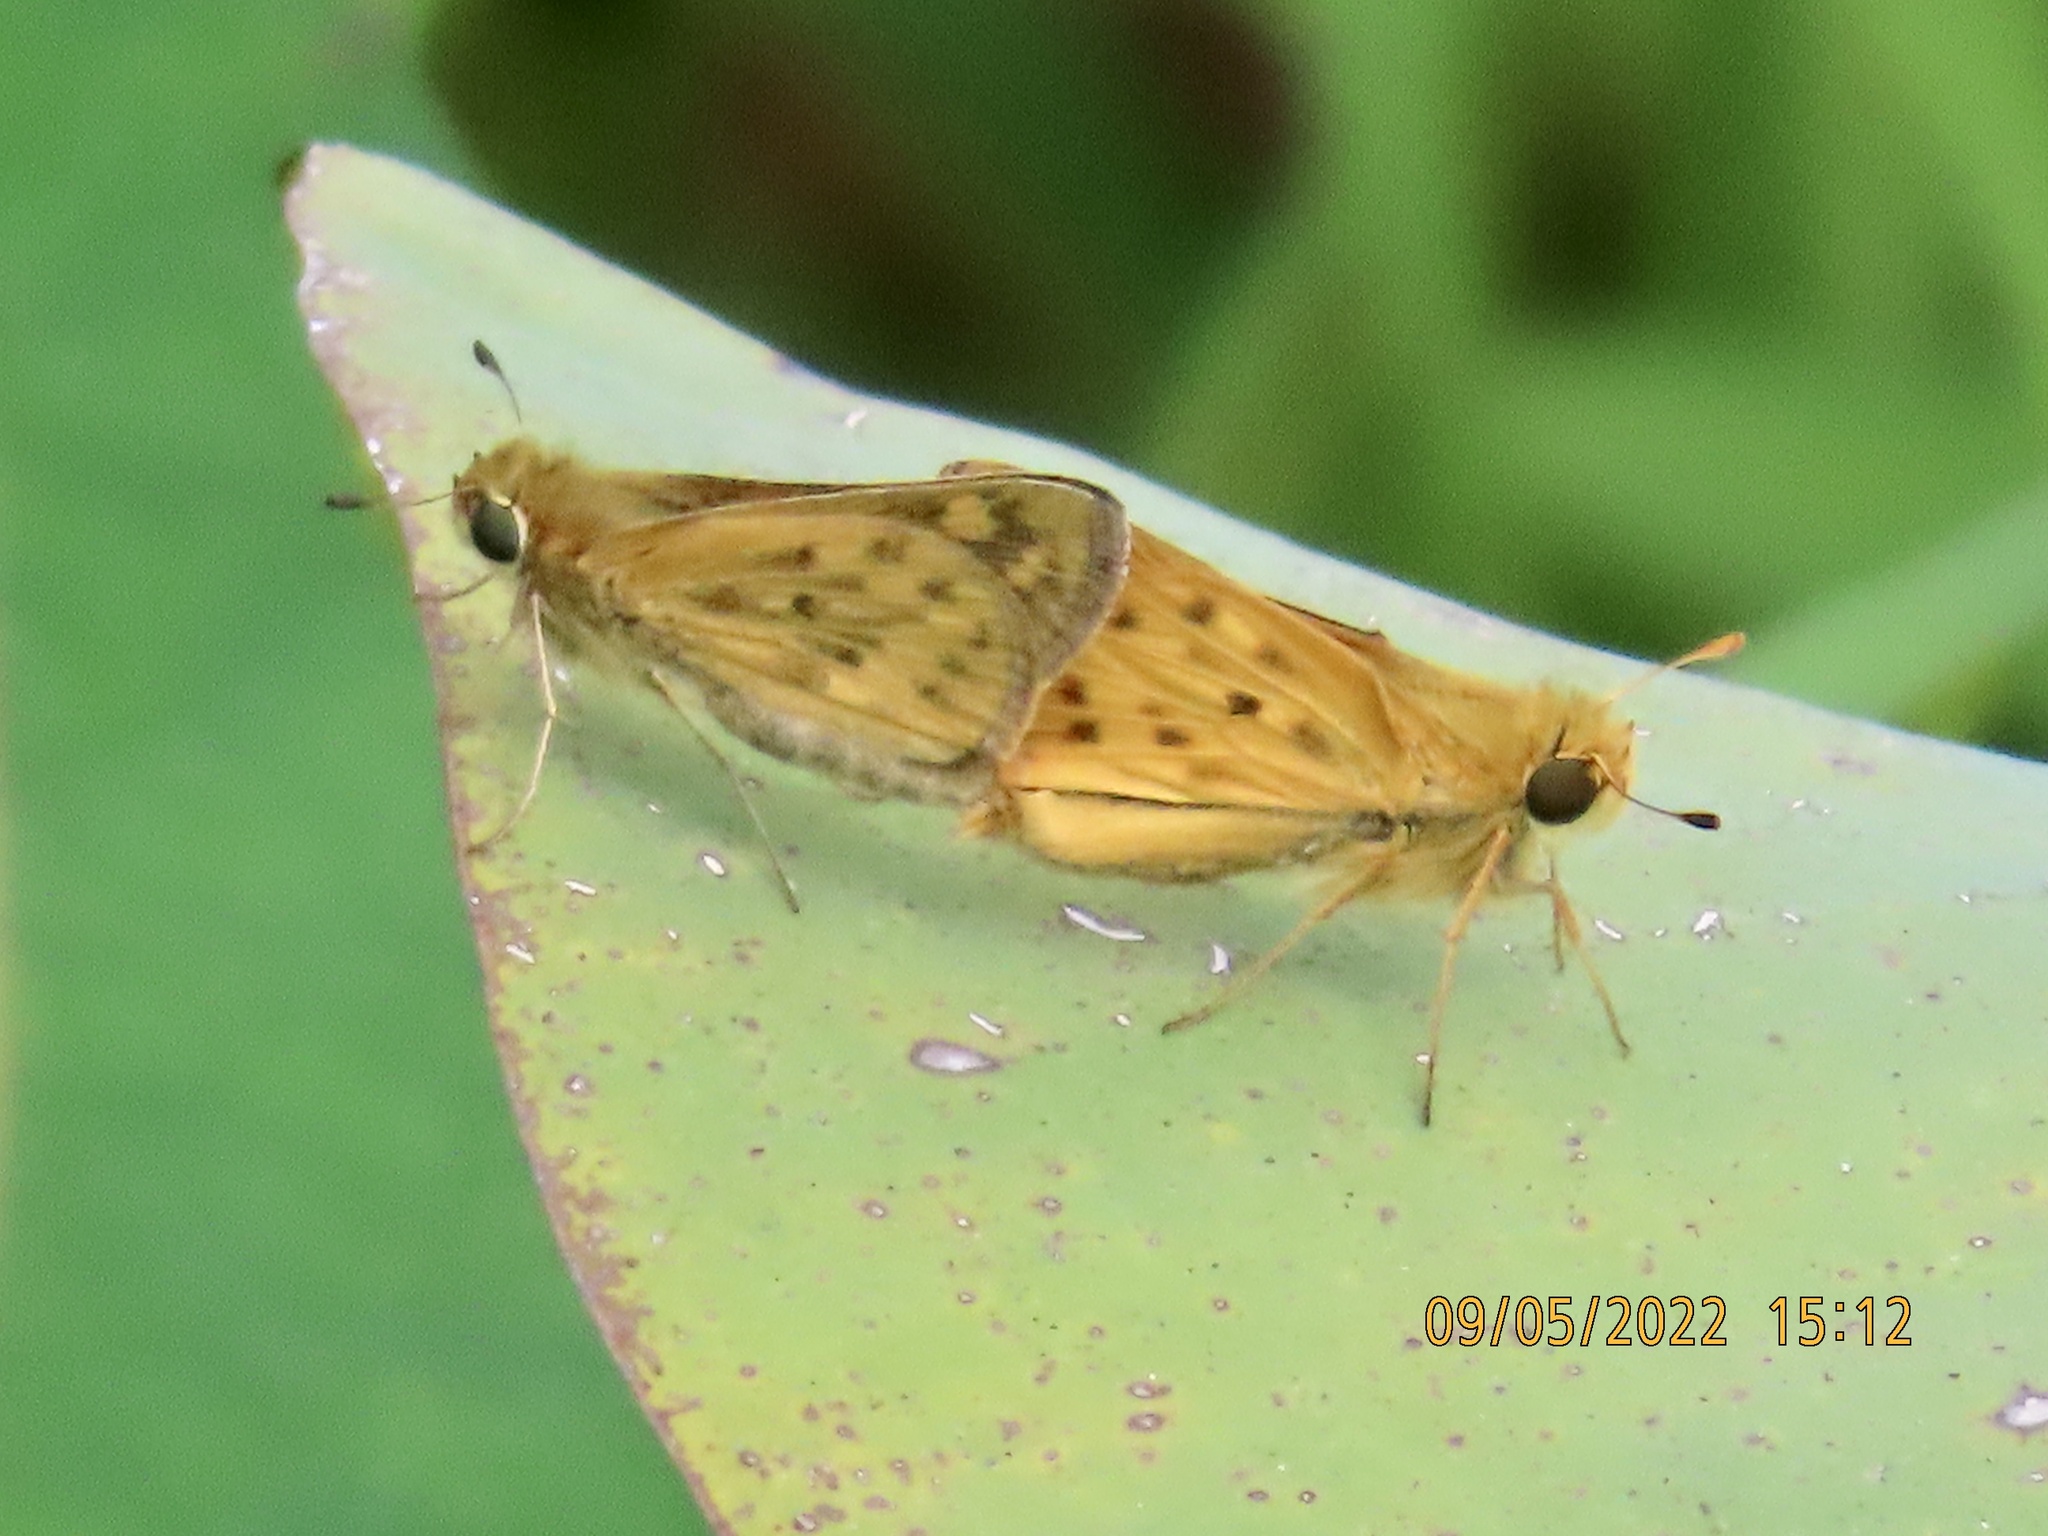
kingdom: Animalia
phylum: Arthropoda
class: Insecta
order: Lepidoptera
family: Hesperiidae
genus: Hylephila
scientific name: Hylephila phyleus
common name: Fiery skipper
